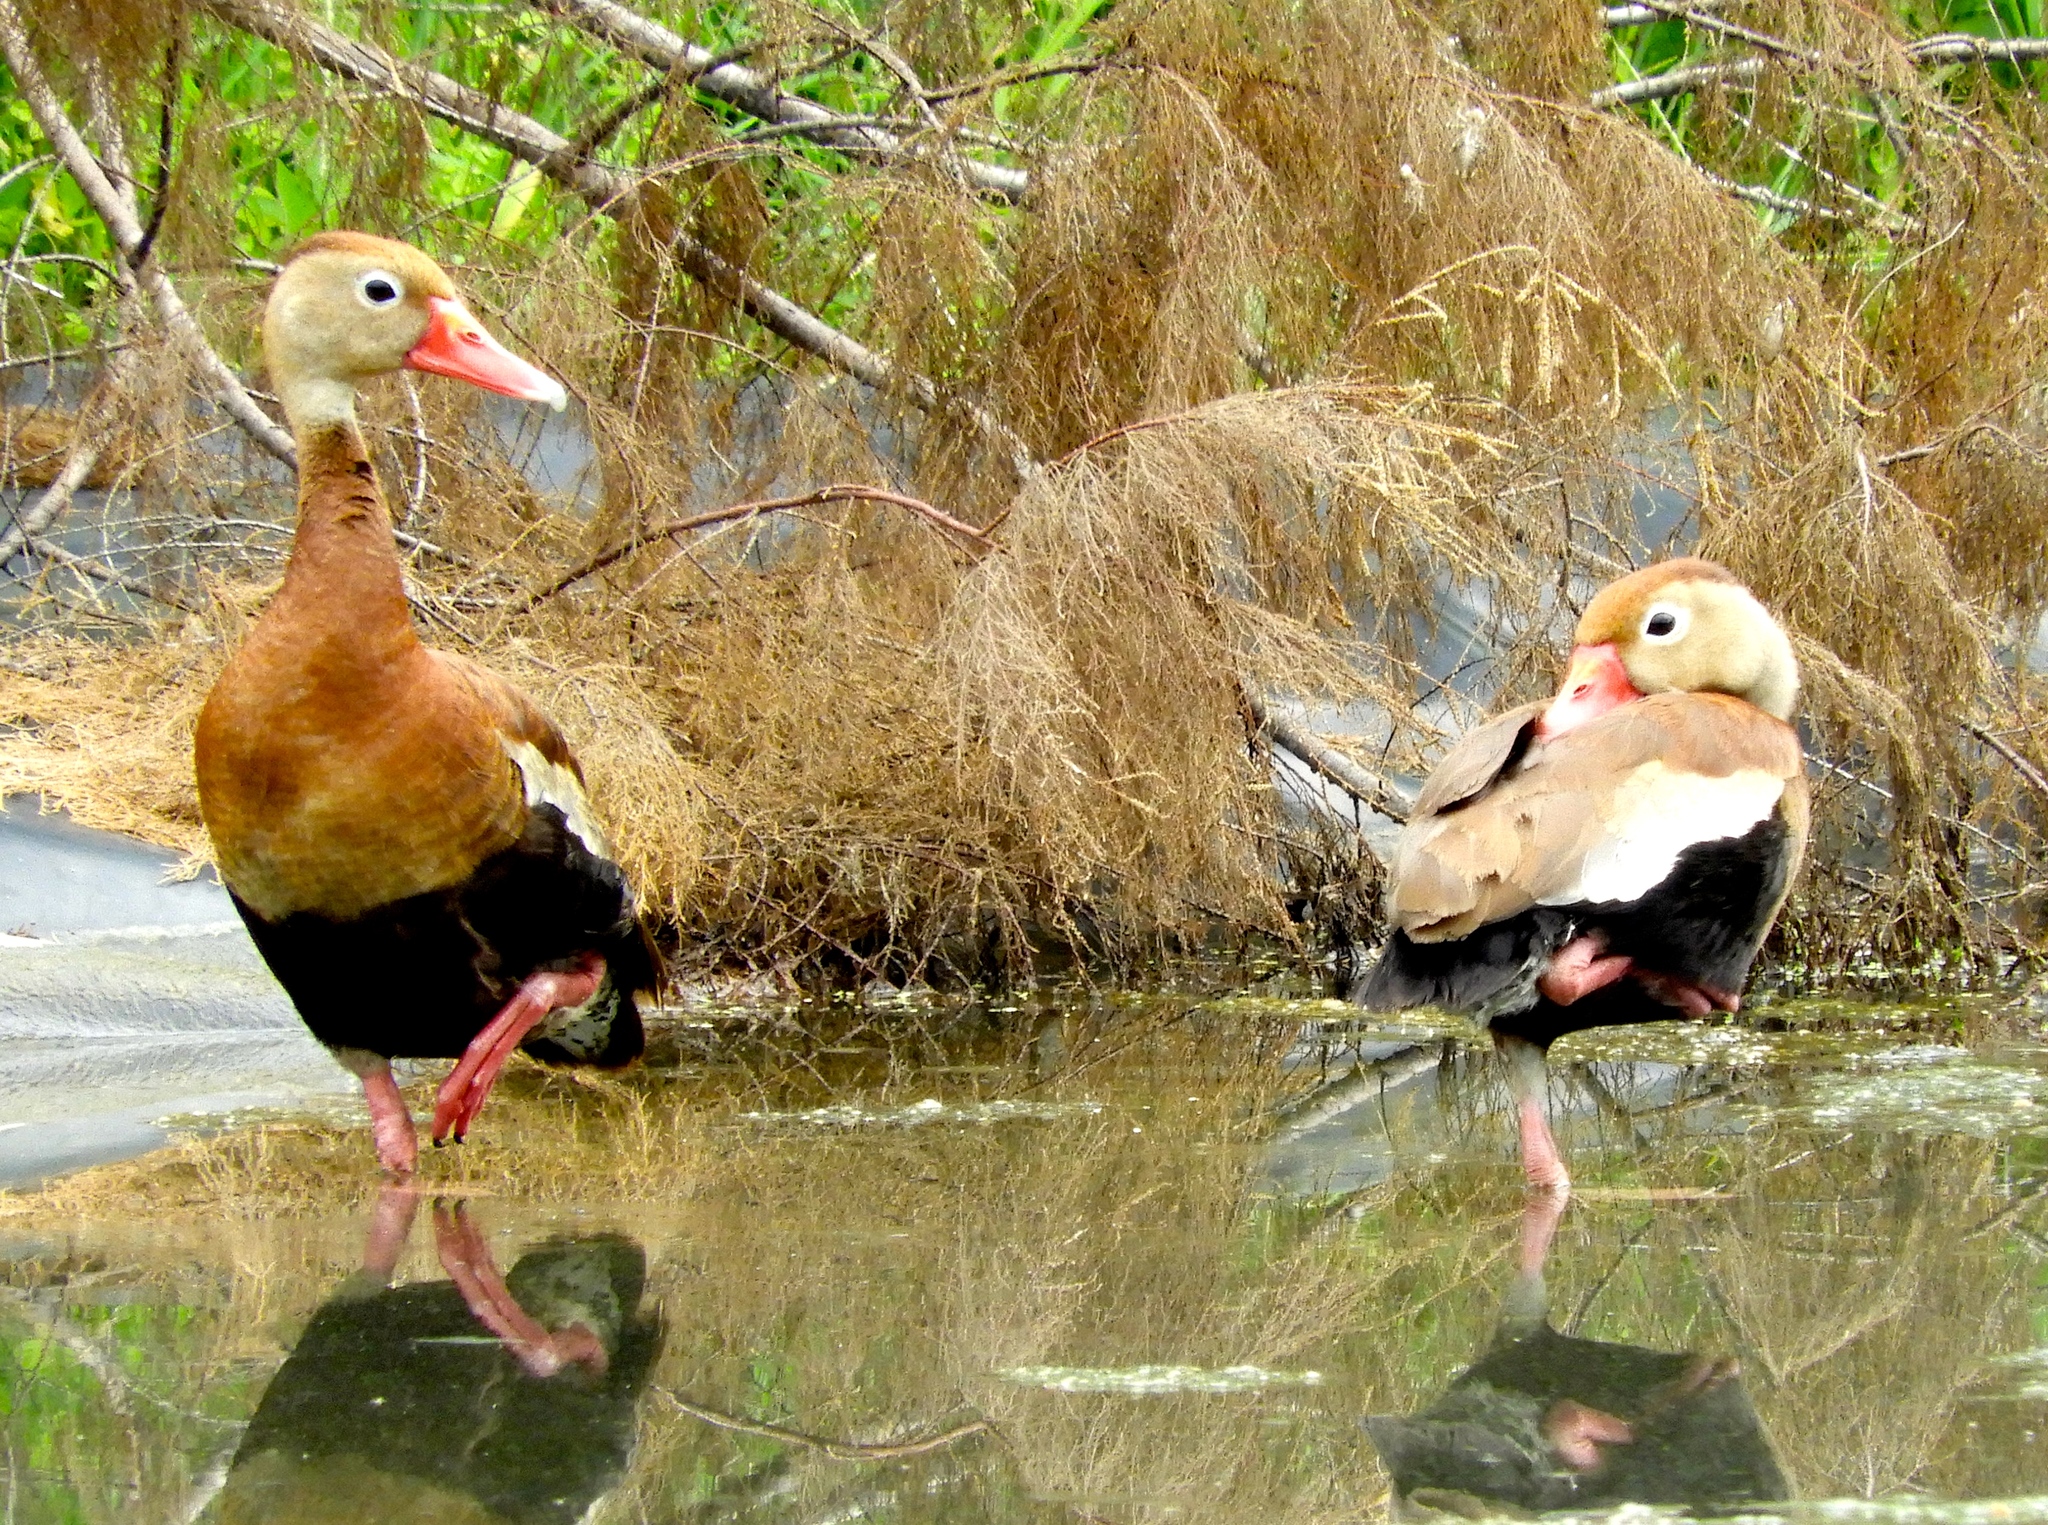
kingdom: Animalia
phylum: Chordata
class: Aves
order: Anseriformes
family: Anatidae
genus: Dendrocygna
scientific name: Dendrocygna autumnalis
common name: Black-bellied whistling duck
